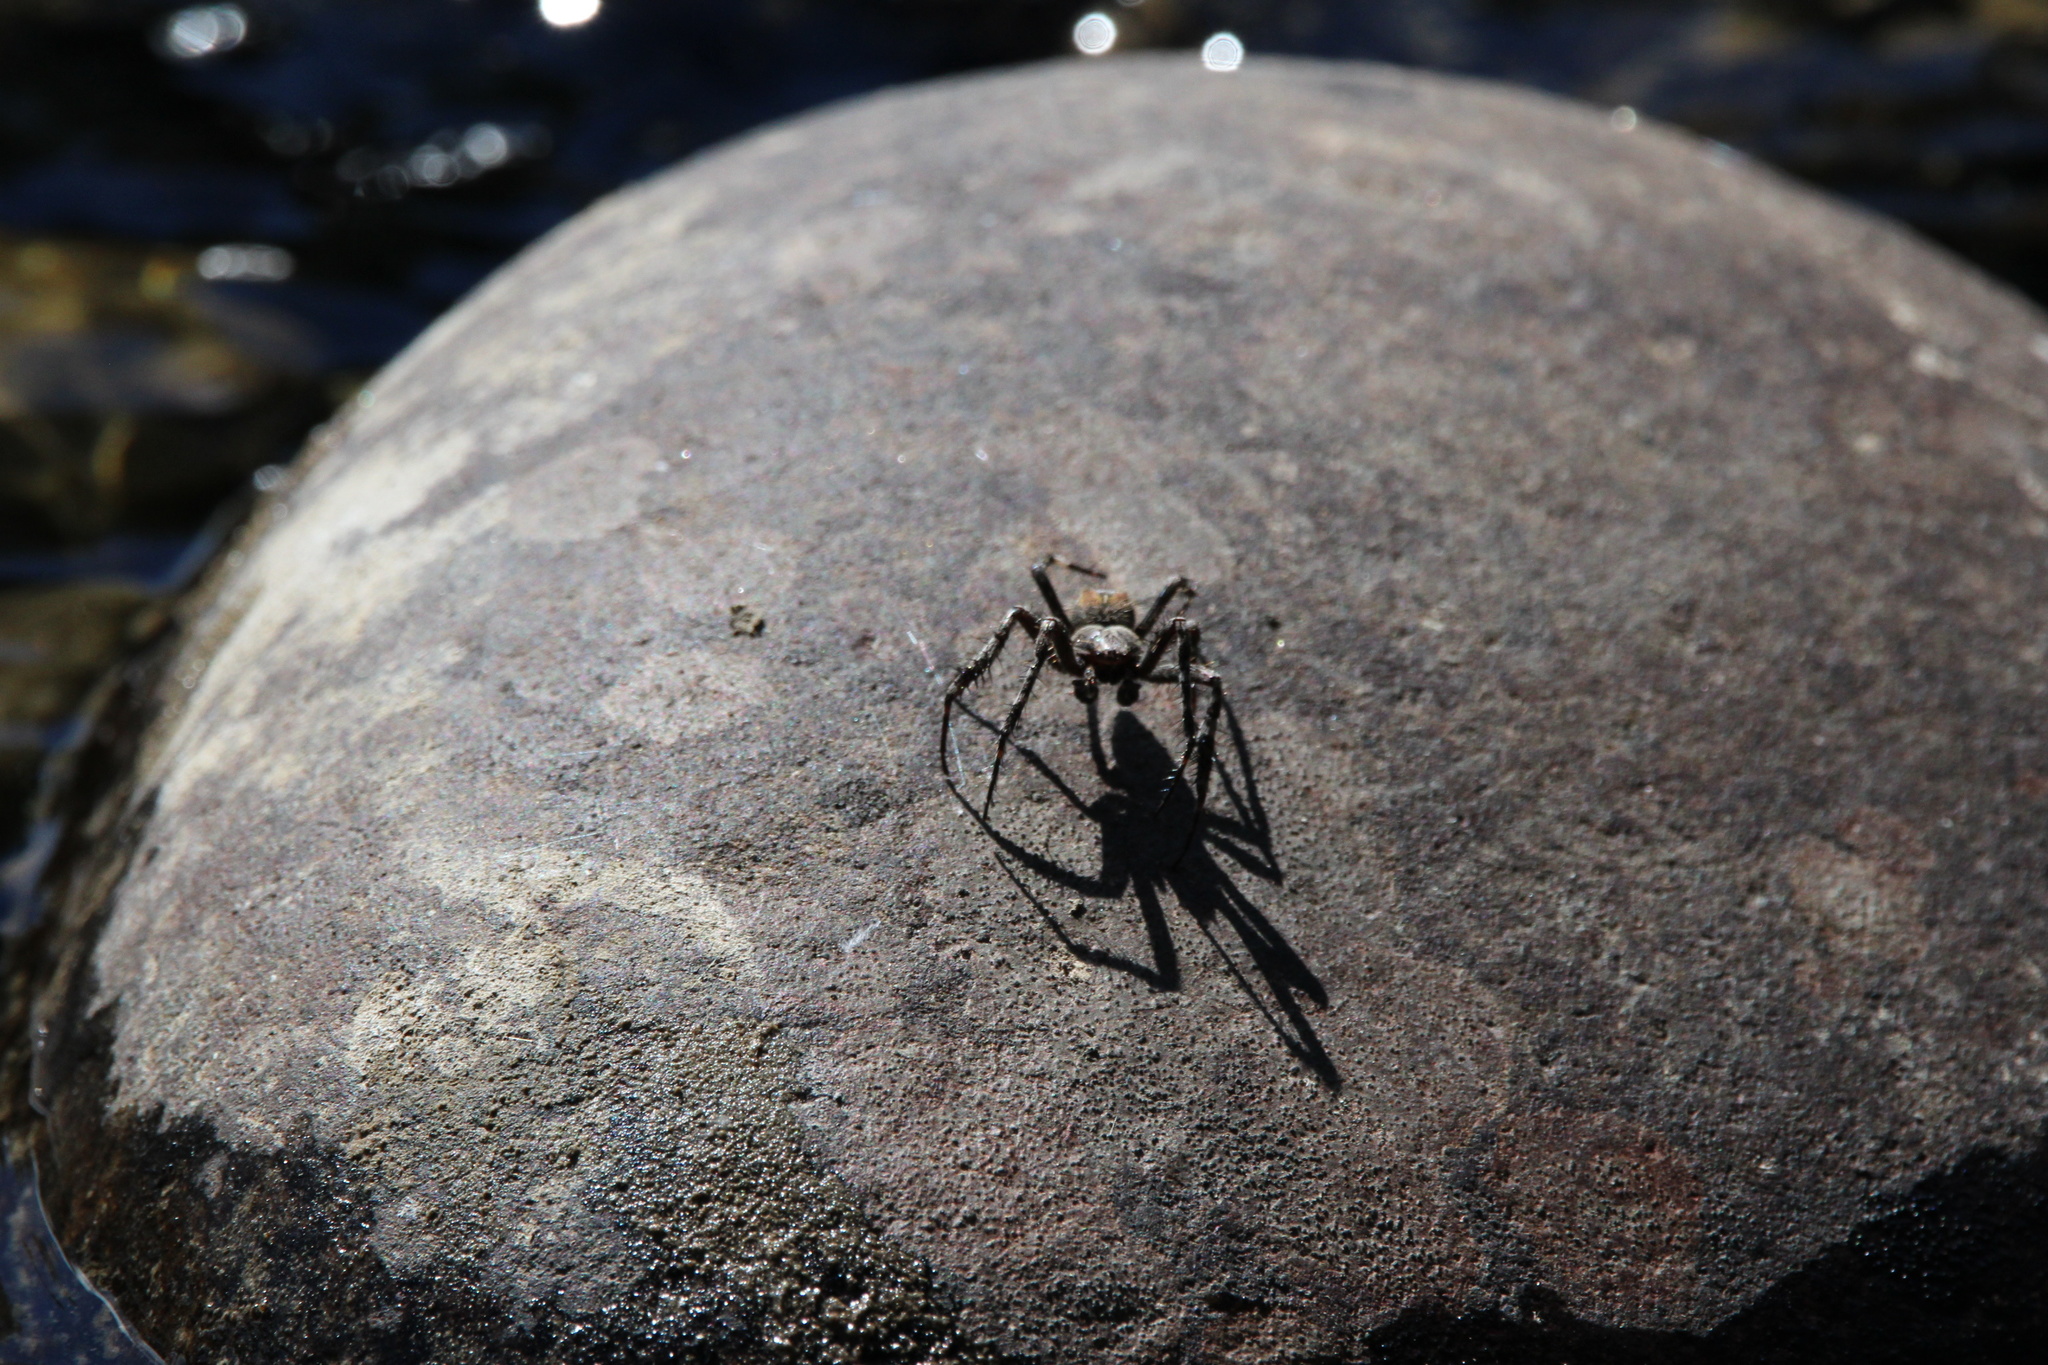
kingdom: Animalia
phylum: Arthropoda
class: Arachnida
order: Araneae
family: Araneidae
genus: Araneus
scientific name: Araneus saevus
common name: Fierce orbweaver
